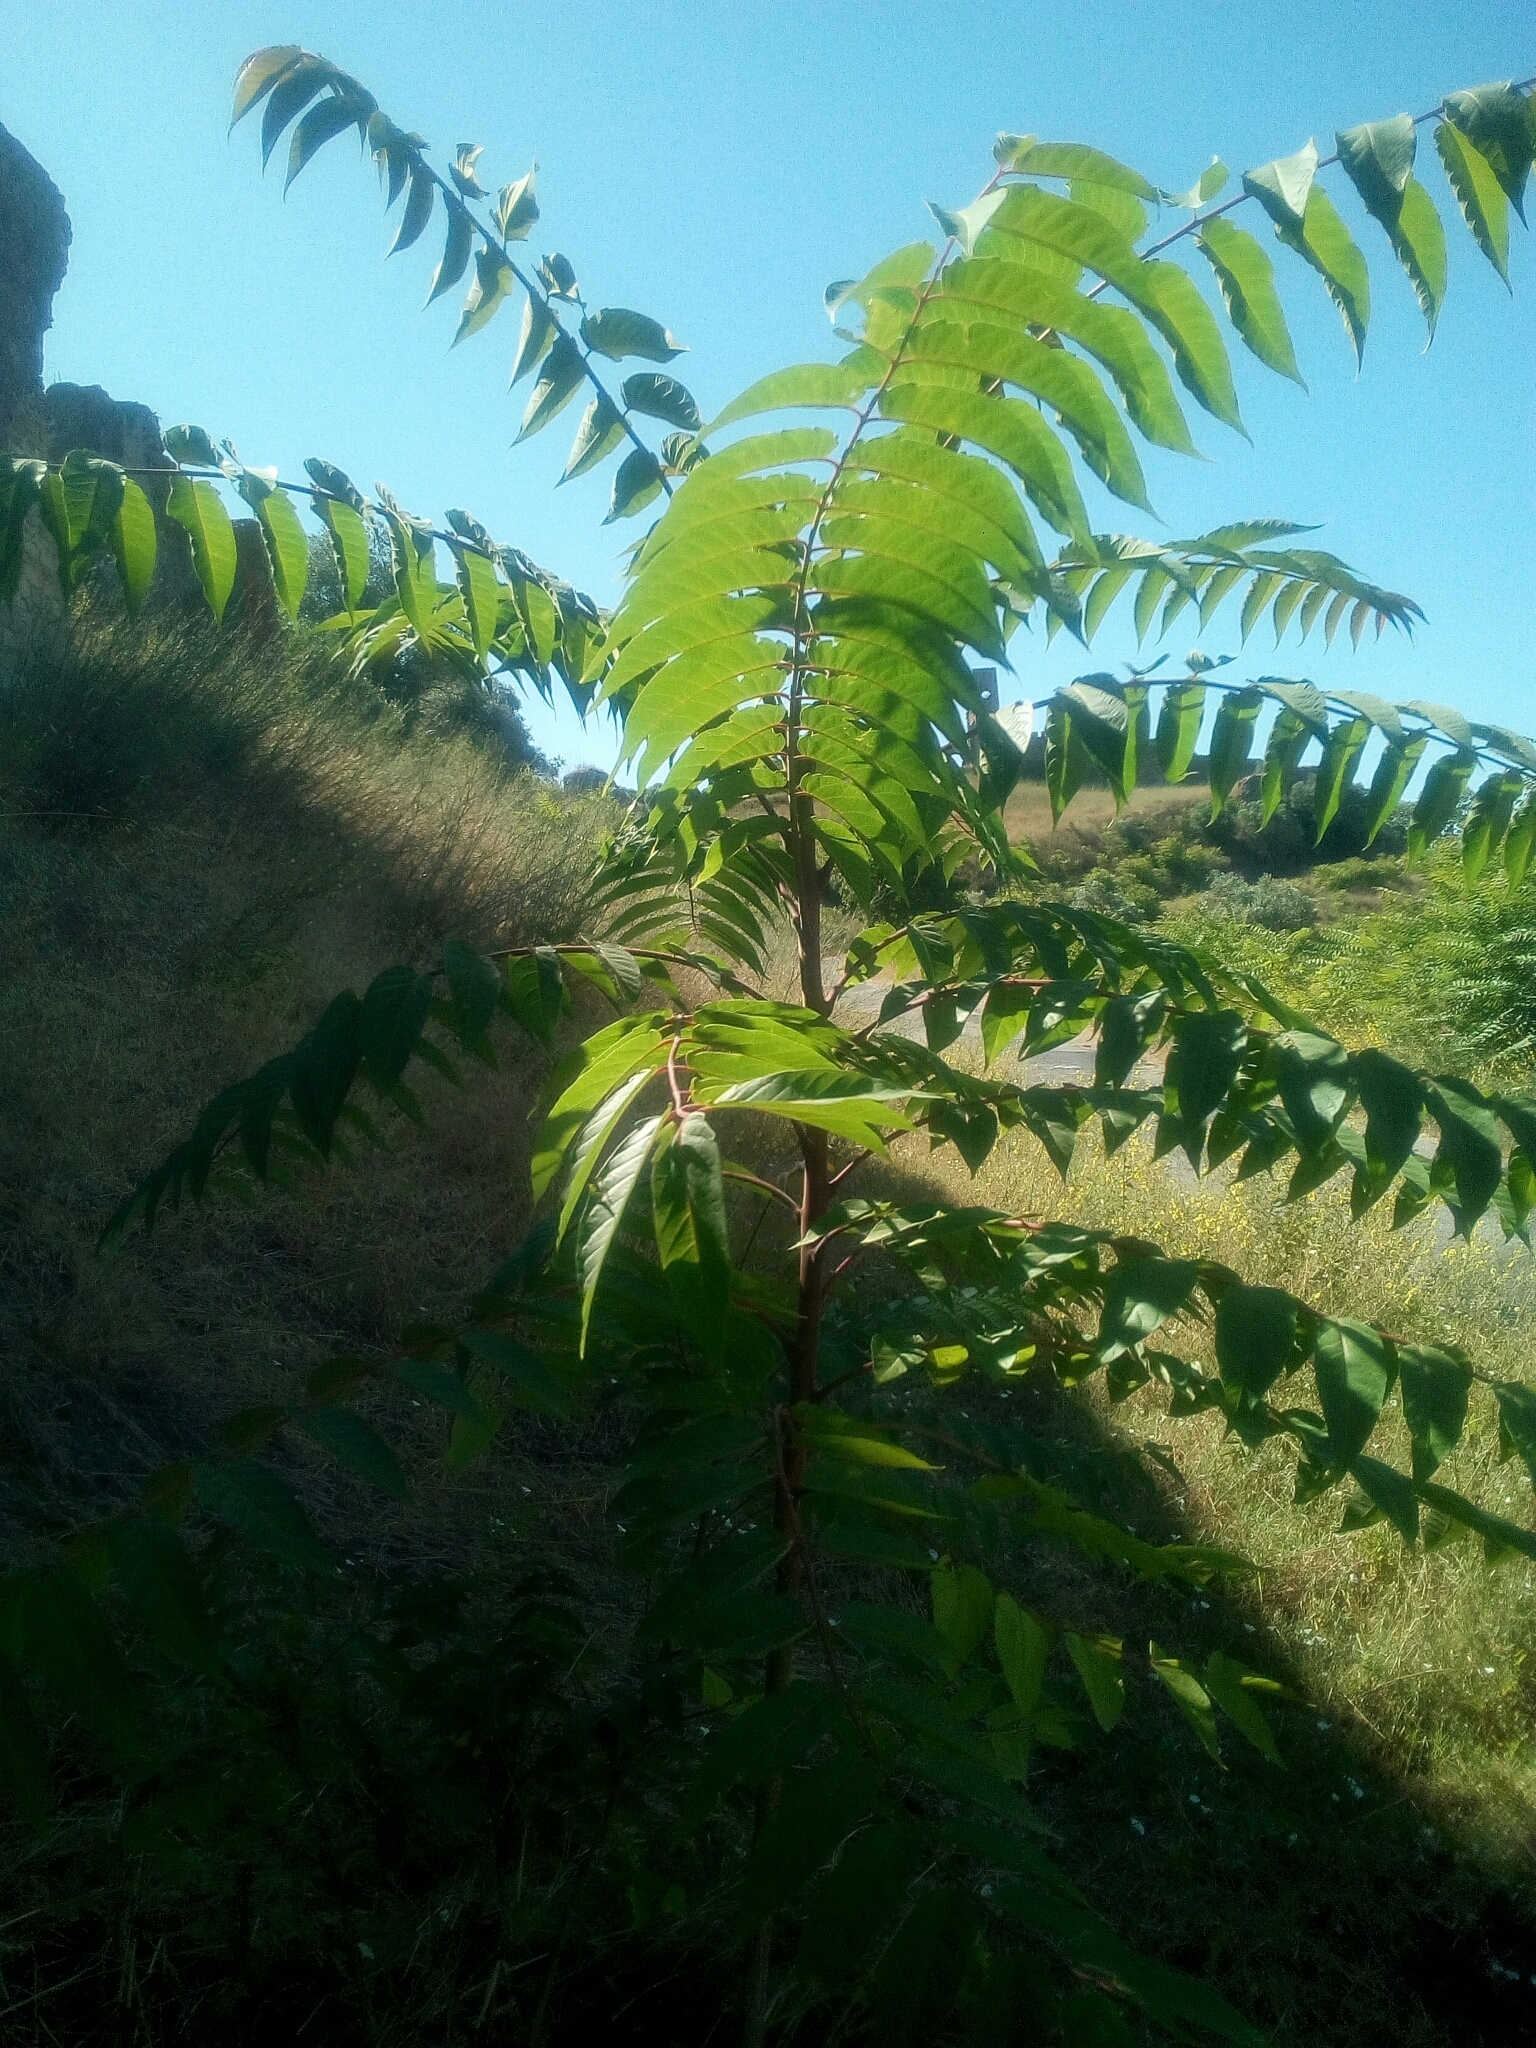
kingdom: Plantae
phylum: Tracheophyta
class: Magnoliopsida
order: Sapindales
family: Simaroubaceae
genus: Ailanthus
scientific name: Ailanthus altissima
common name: Tree-of-heaven
